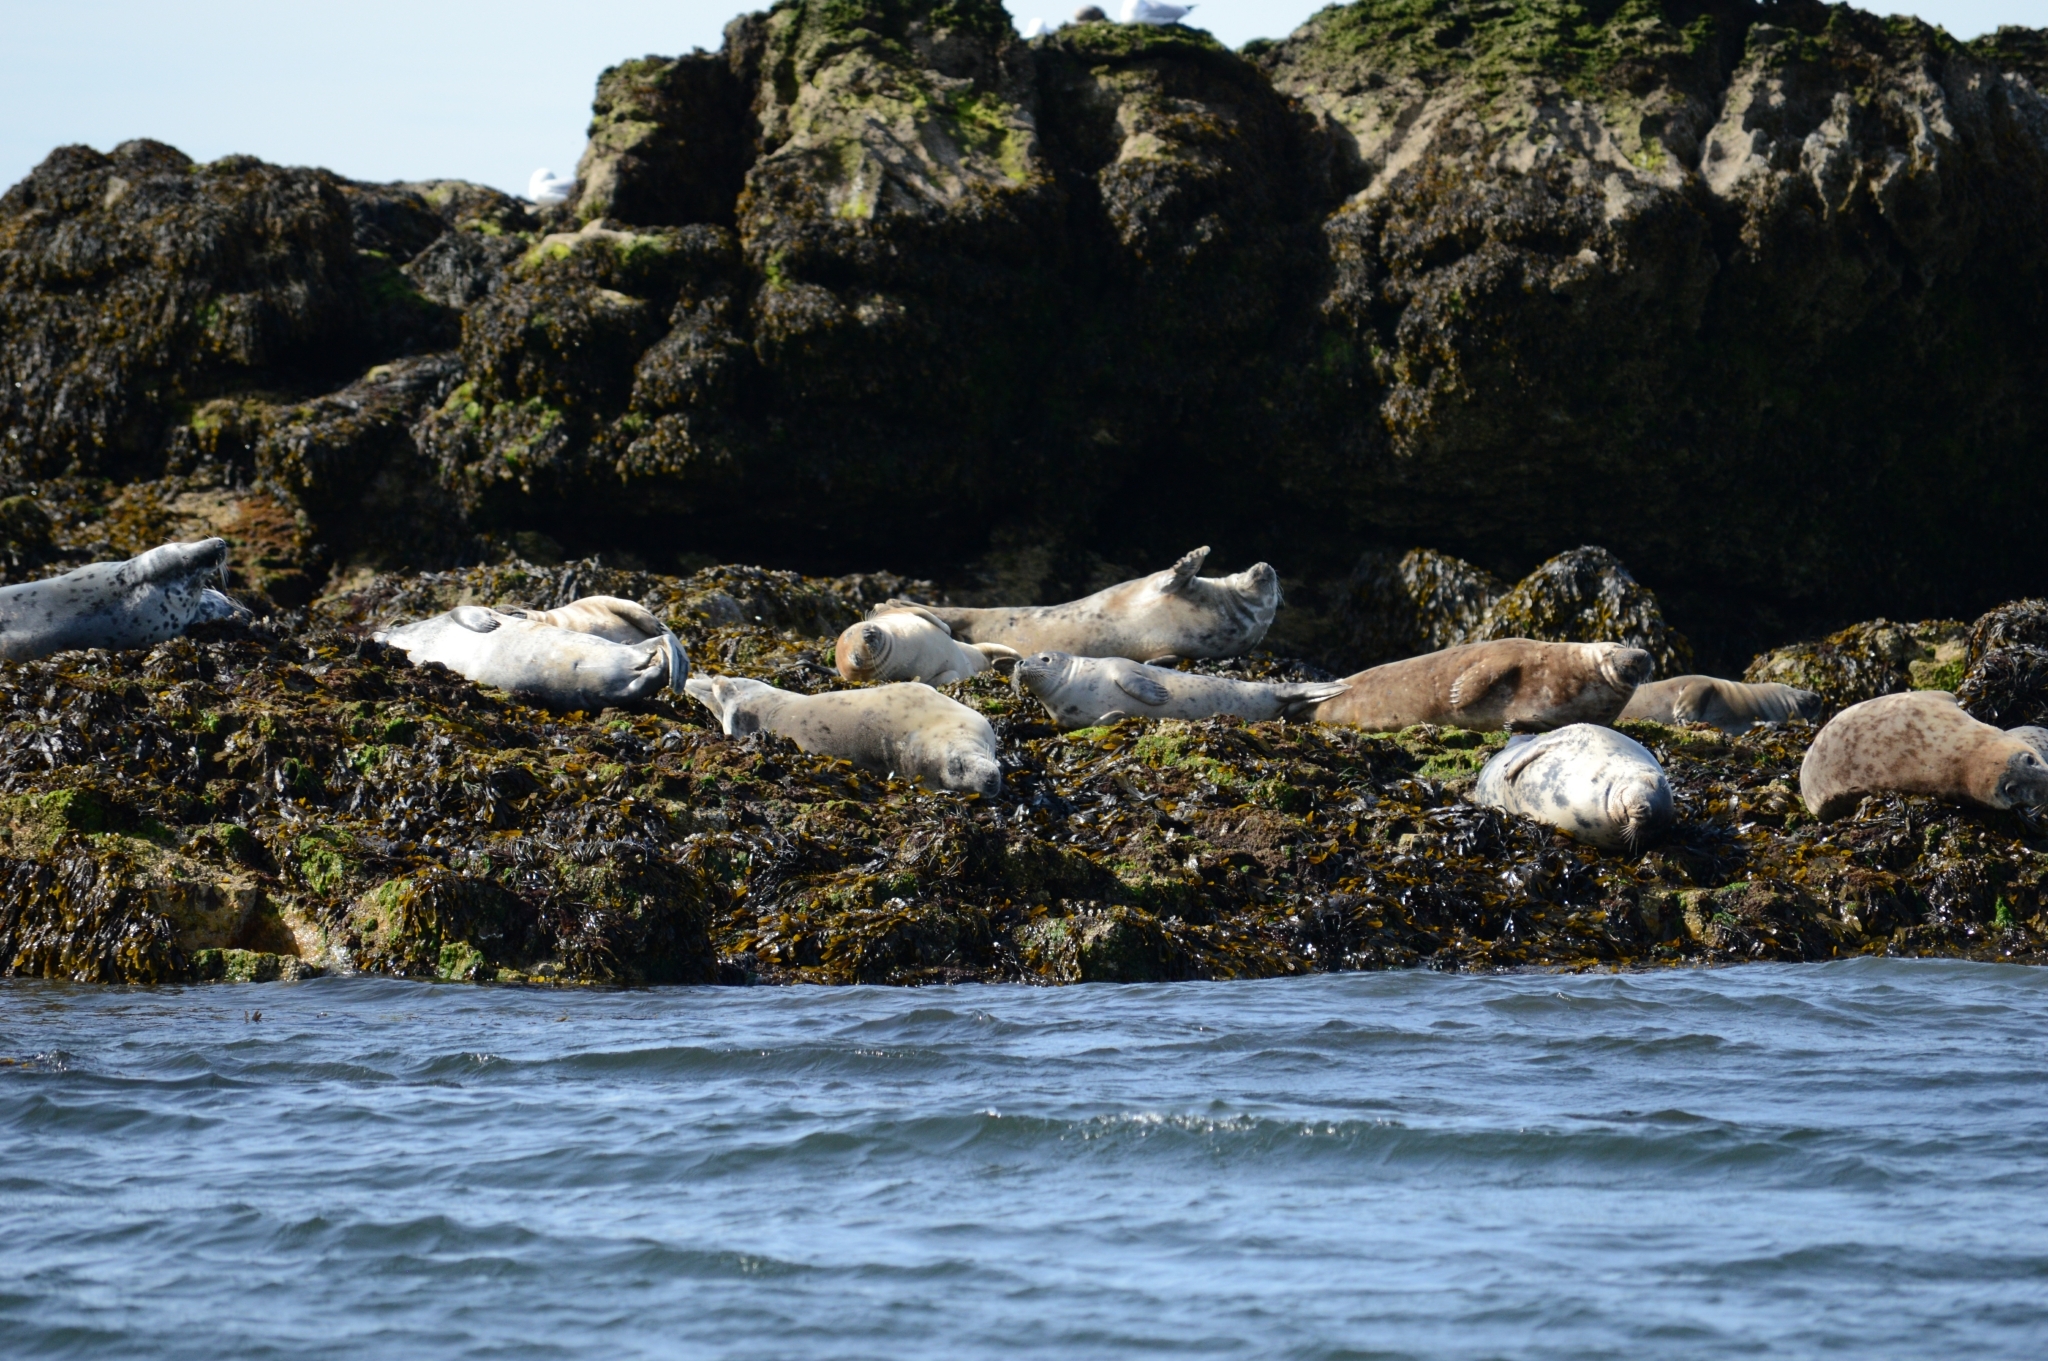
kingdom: Animalia
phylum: Chordata
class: Mammalia
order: Carnivora
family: Phocidae
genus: Halichoerus
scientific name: Halichoerus grypus
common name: Grey seal
